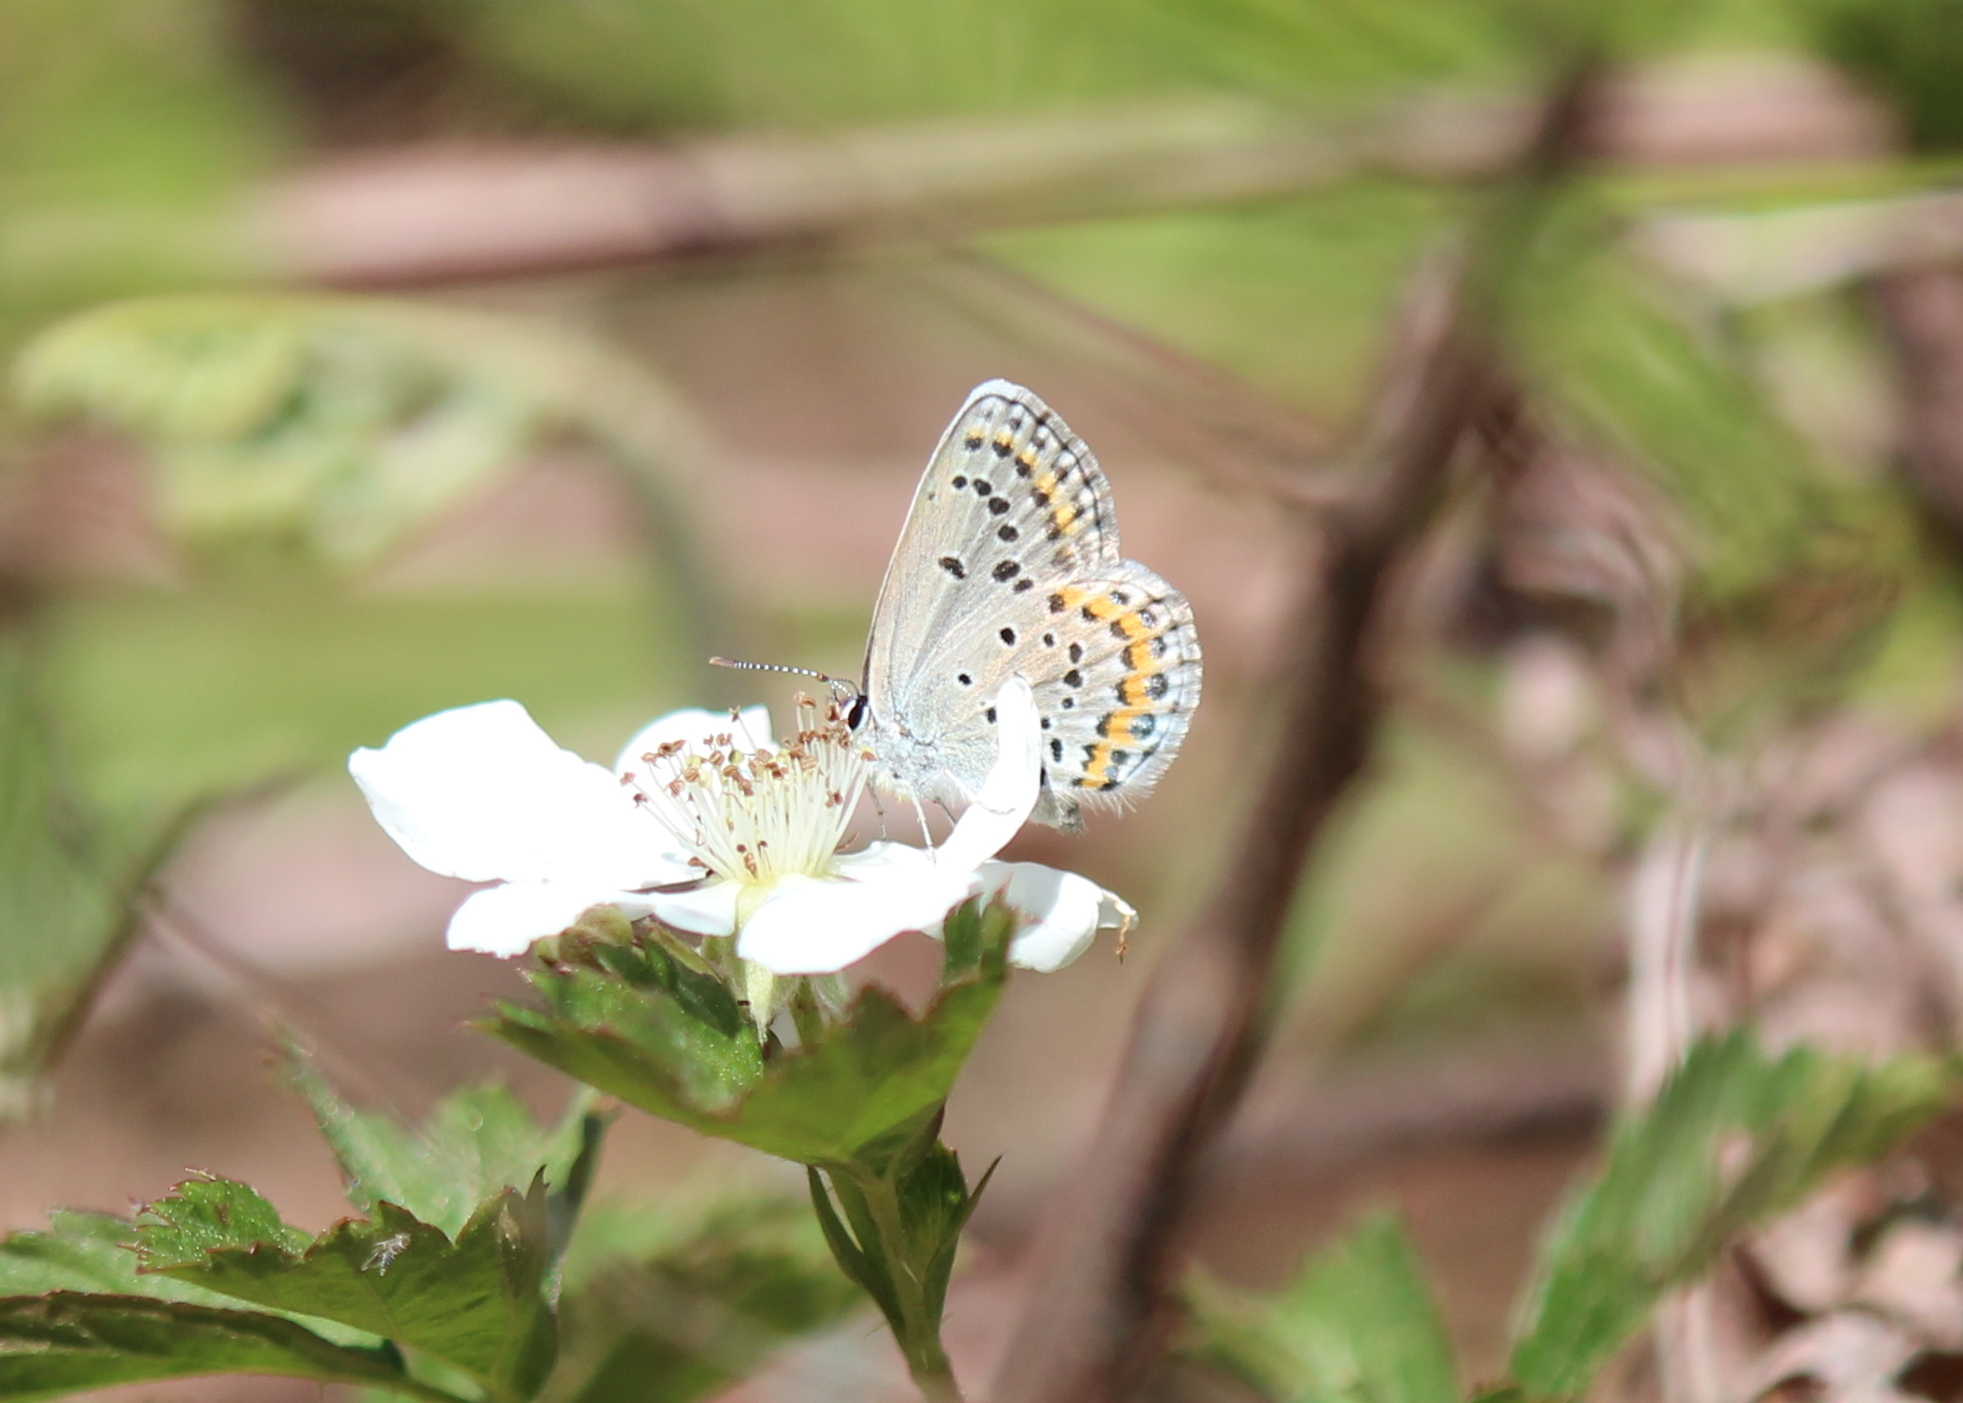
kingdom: Animalia
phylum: Arthropoda
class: Insecta
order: Lepidoptera
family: Lycaenidae
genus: Plebejus
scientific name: Plebejus samuelis
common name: Karner blue
